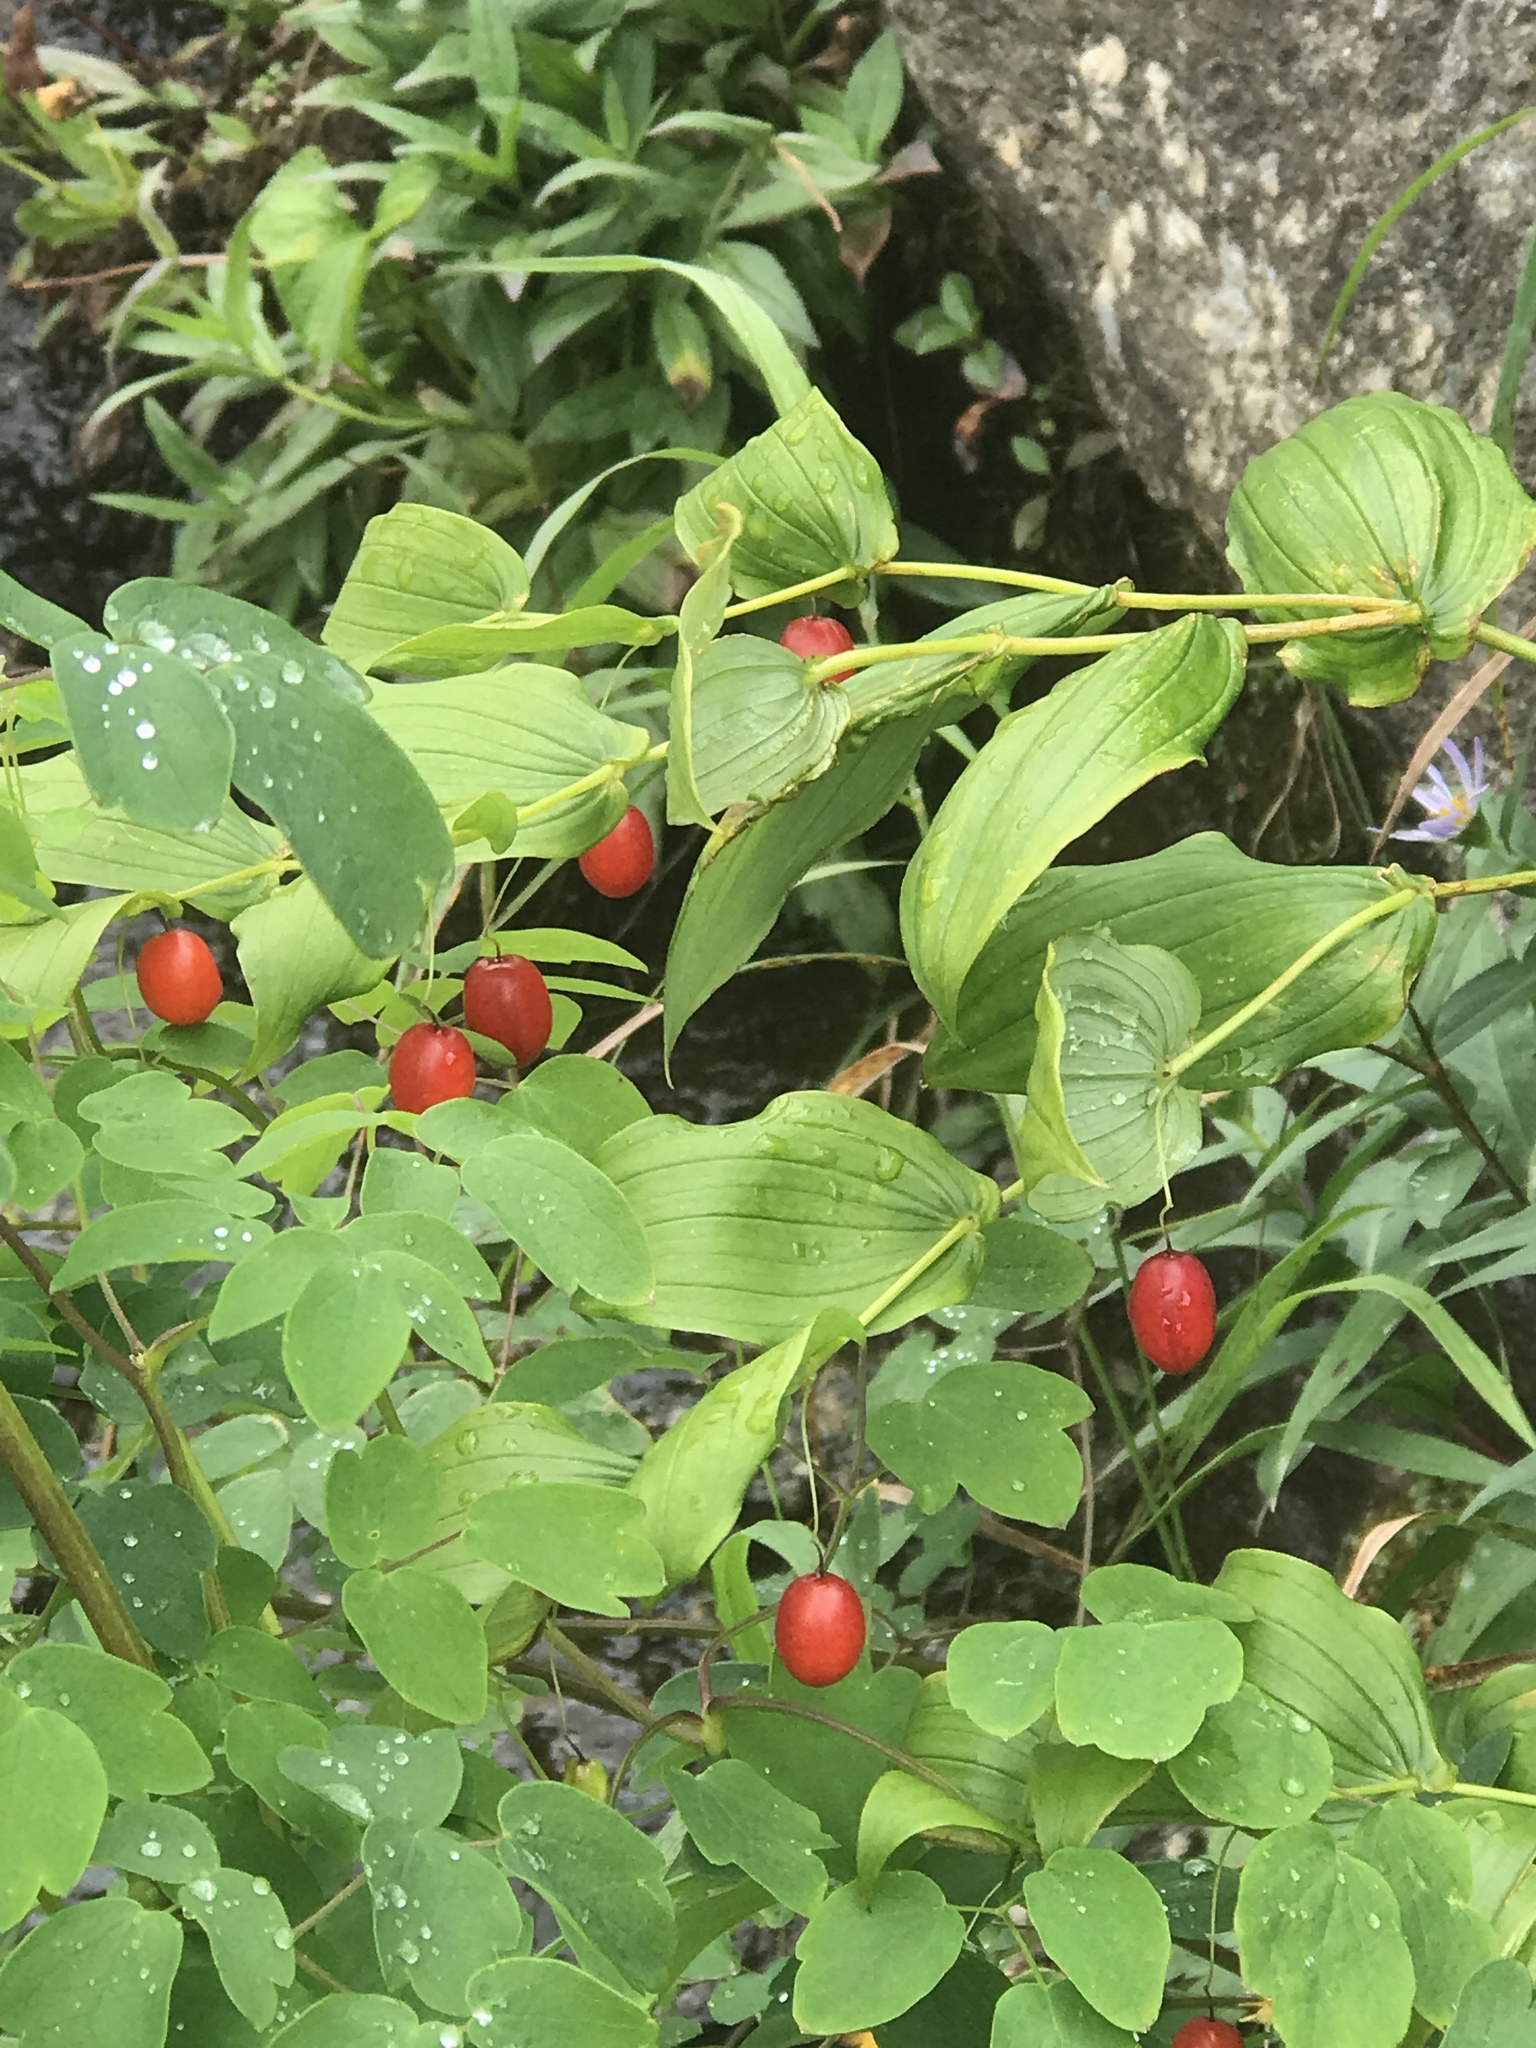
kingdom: Plantae
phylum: Tracheophyta
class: Liliopsida
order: Liliales
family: Liliaceae
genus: Streptopus
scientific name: Streptopus amplexifolius
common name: Clasp twisted stalk
